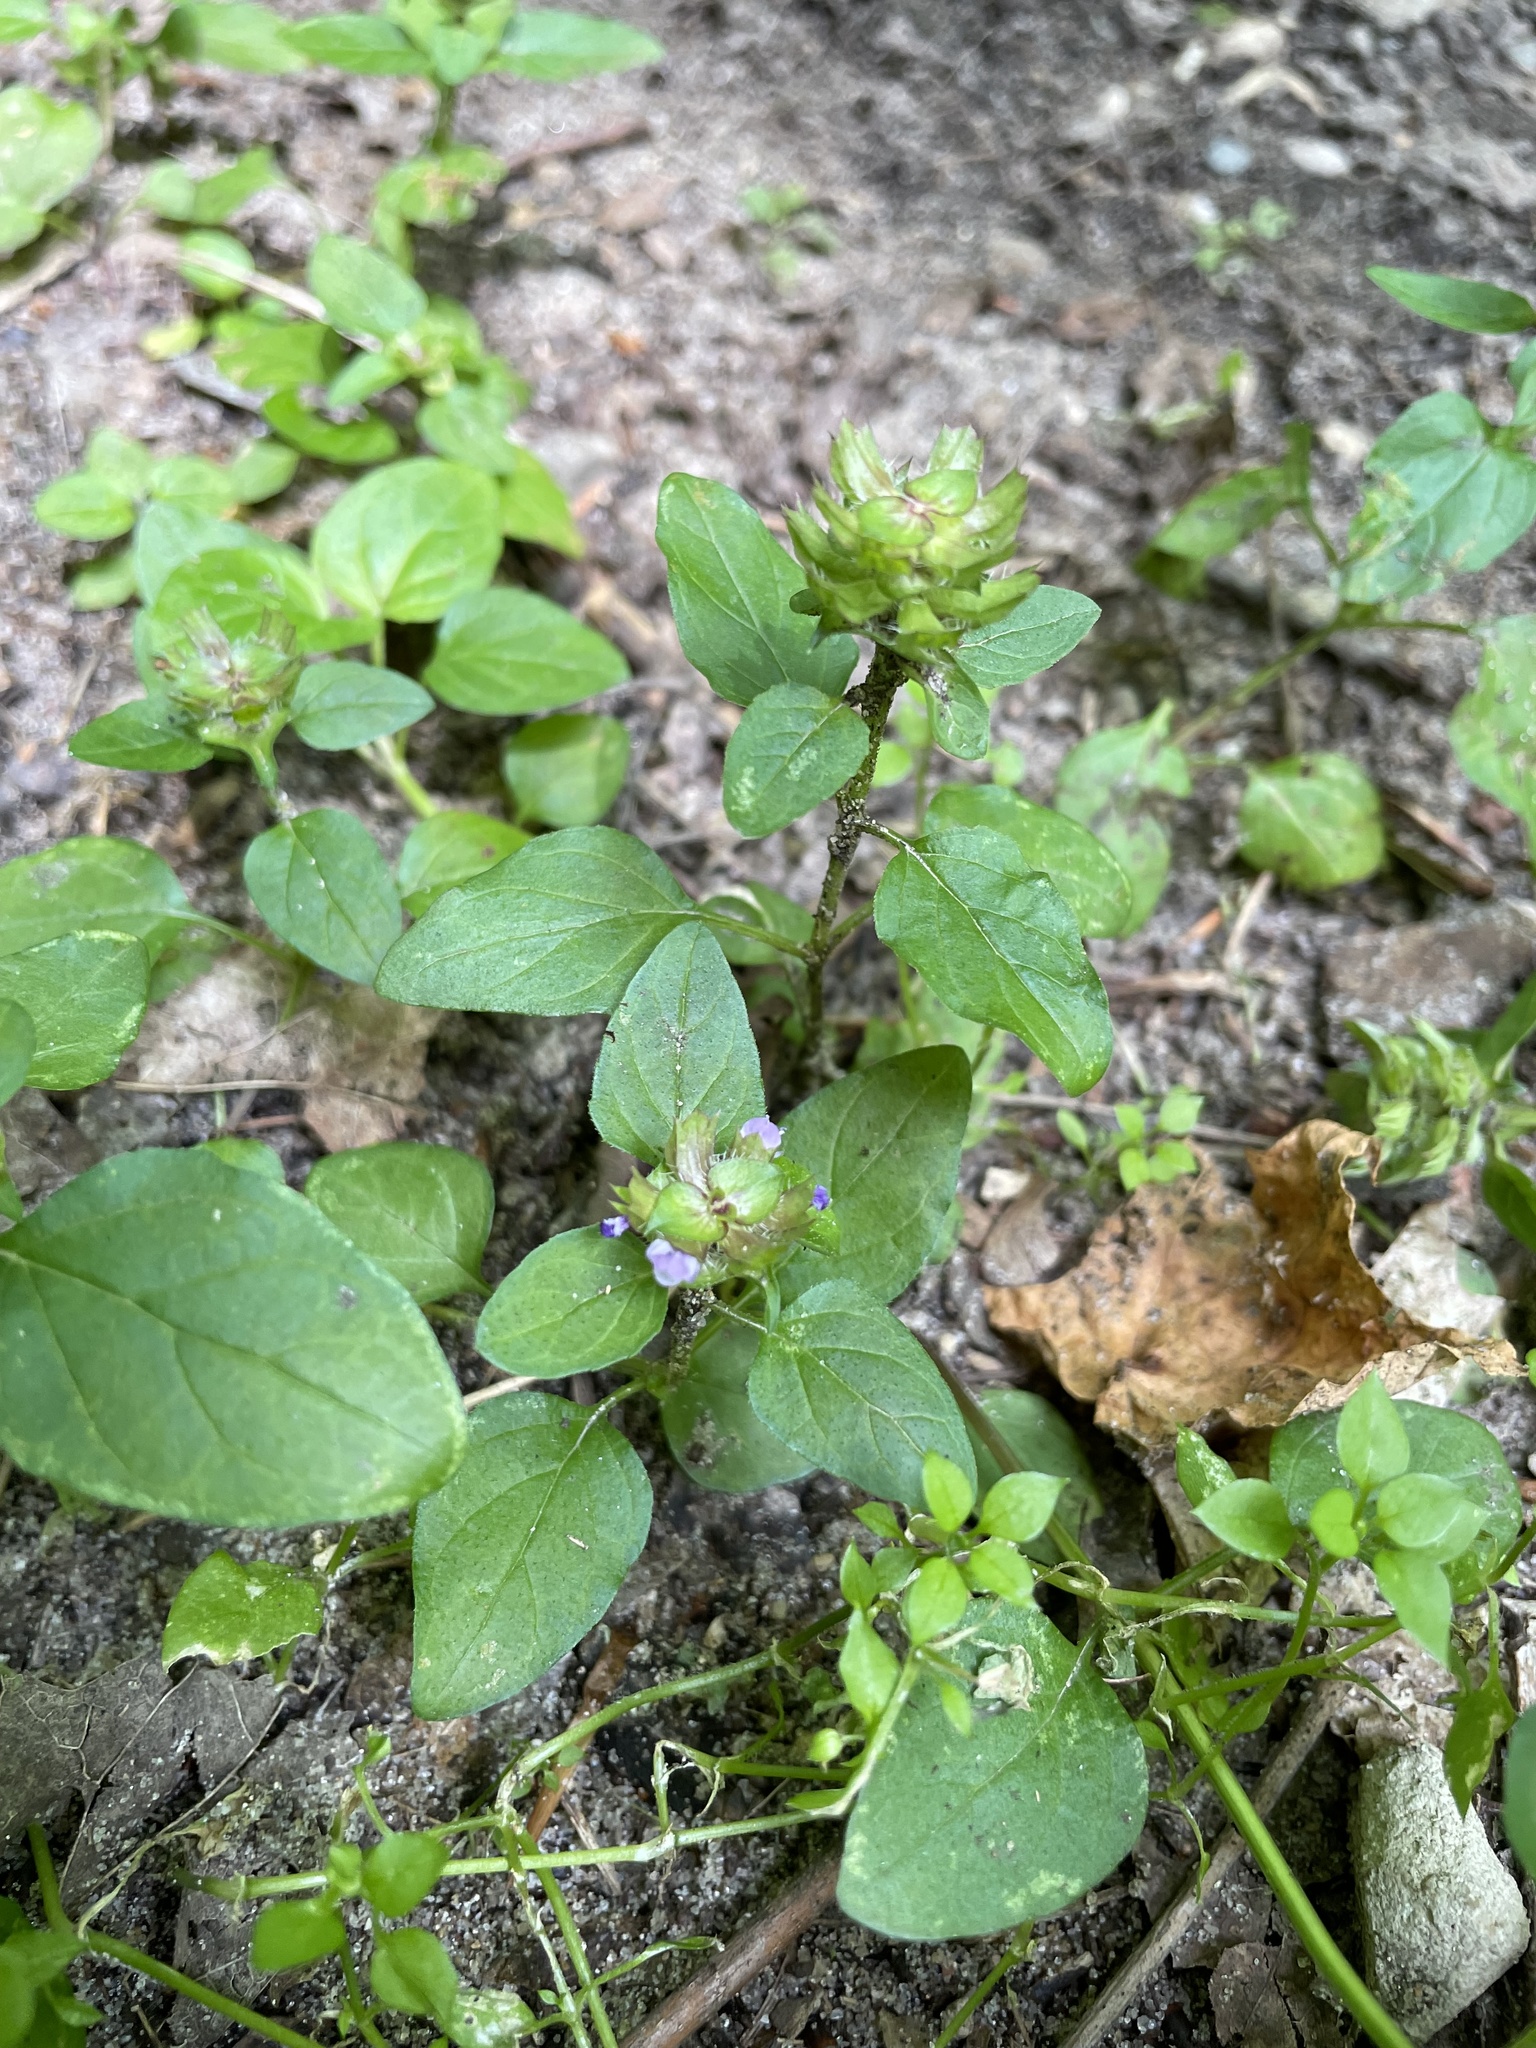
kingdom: Plantae
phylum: Tracheophyta
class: Magnoliopsida
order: Lamiales
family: Lamiaceae
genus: Prunella
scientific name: Prunella vulgaris
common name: Heal-all
